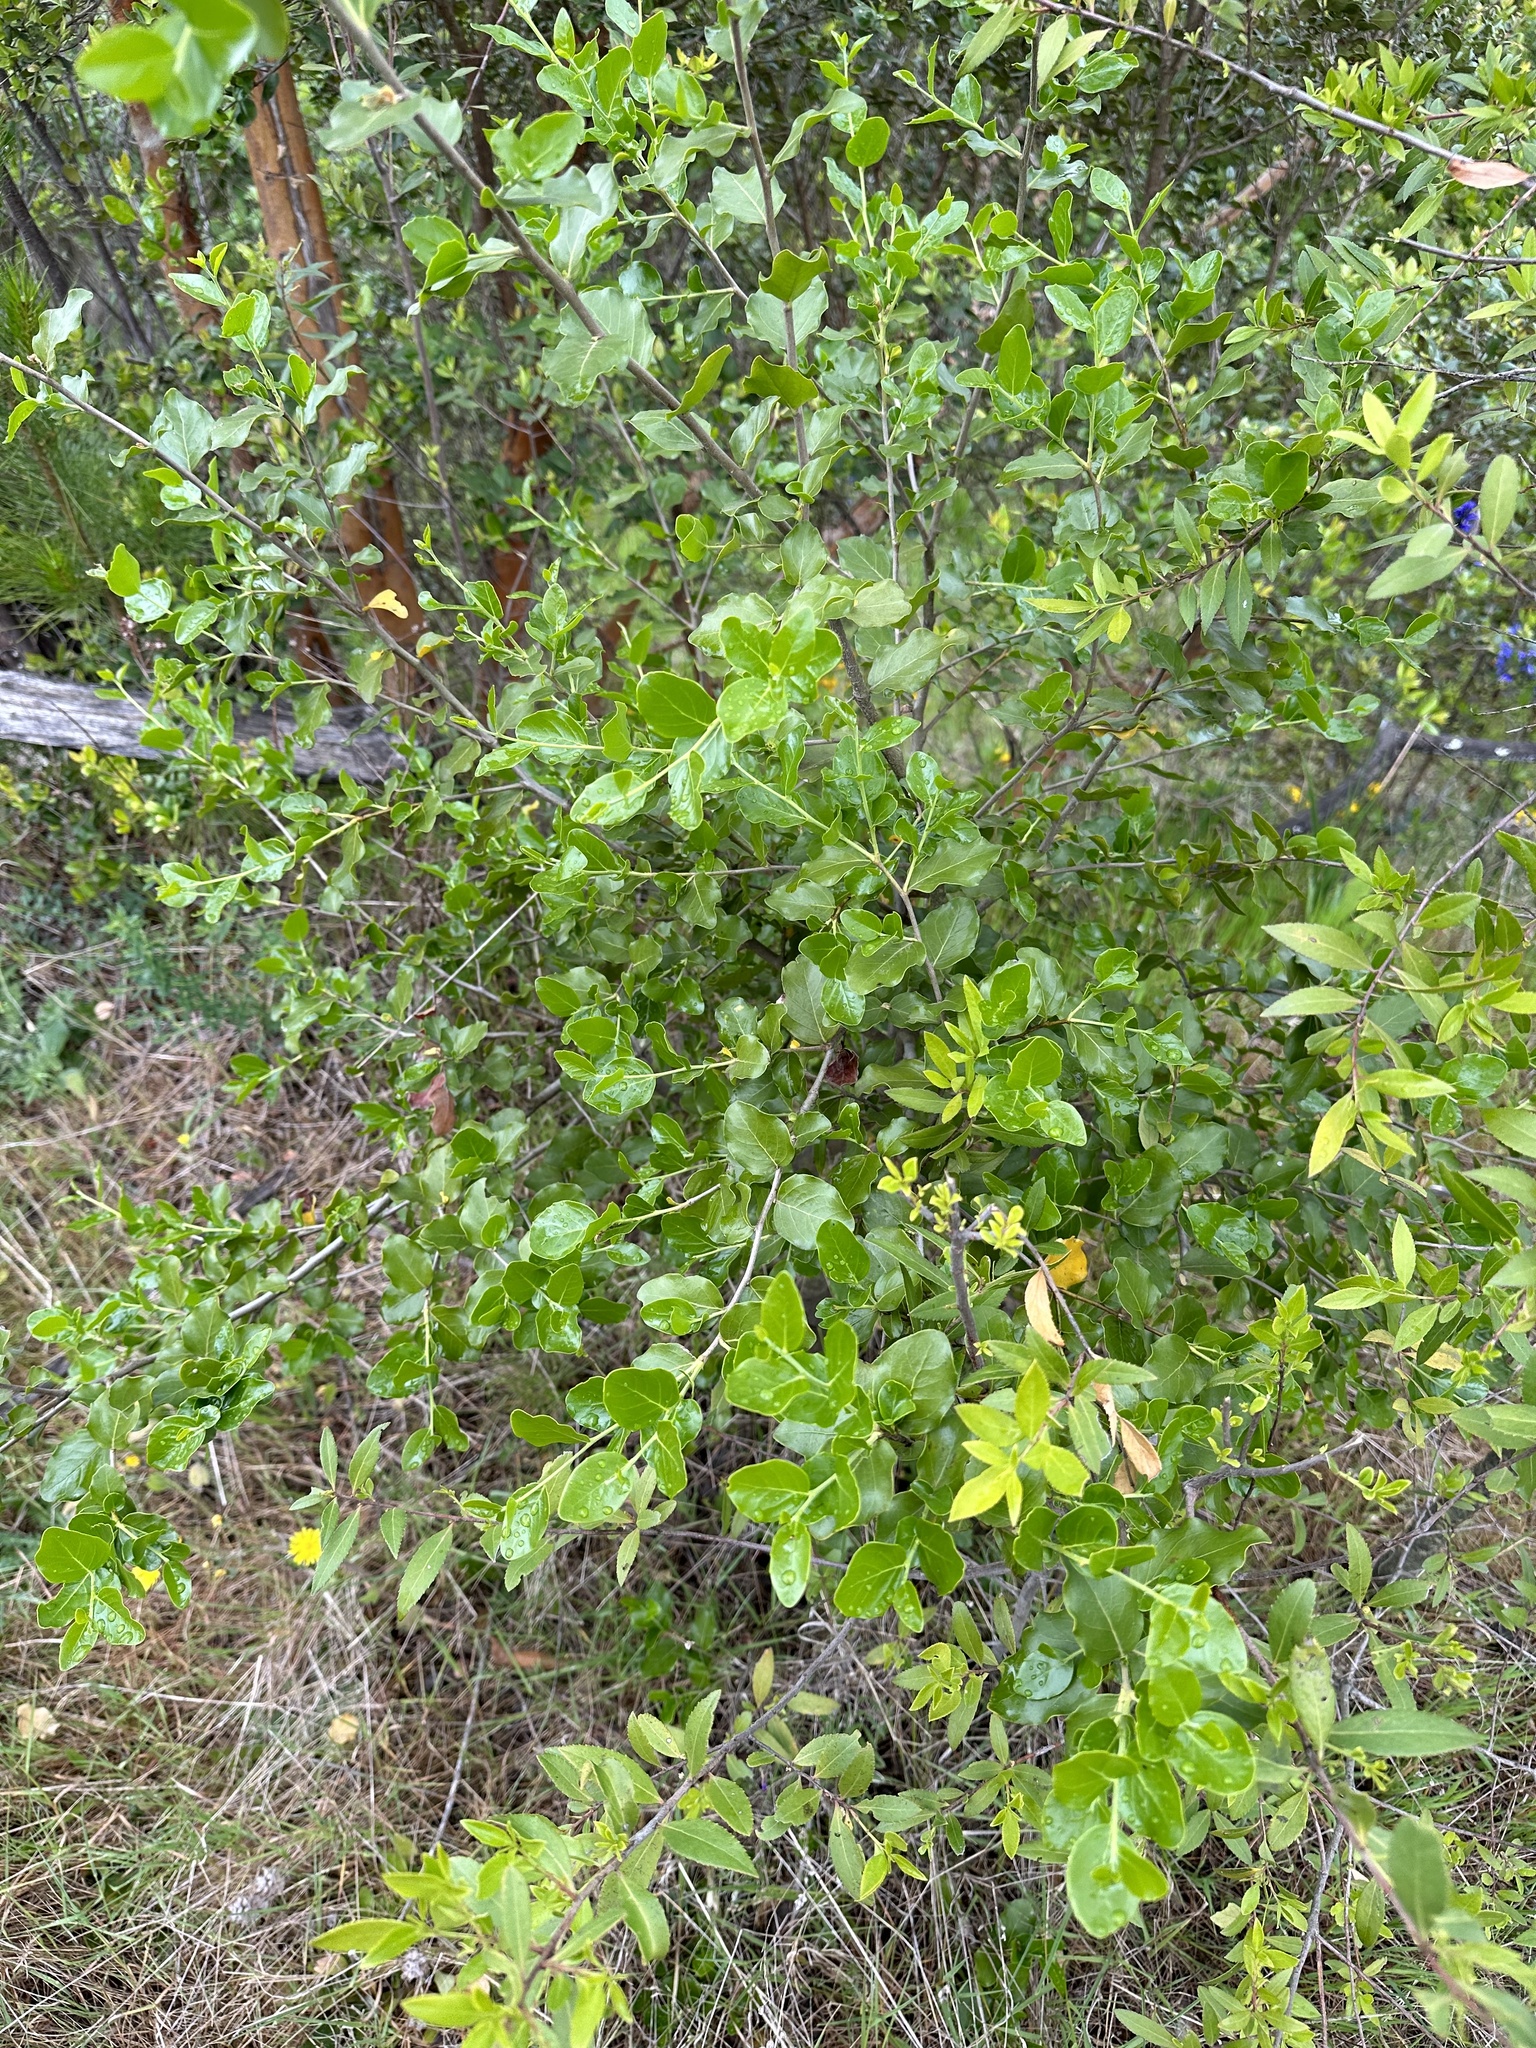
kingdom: Plantae
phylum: Tracheophyta
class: Magnoliopsida
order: Fabales
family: Quillajaceae
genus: Quillaja
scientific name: Quillaja saponaria
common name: Murillo's-bark
